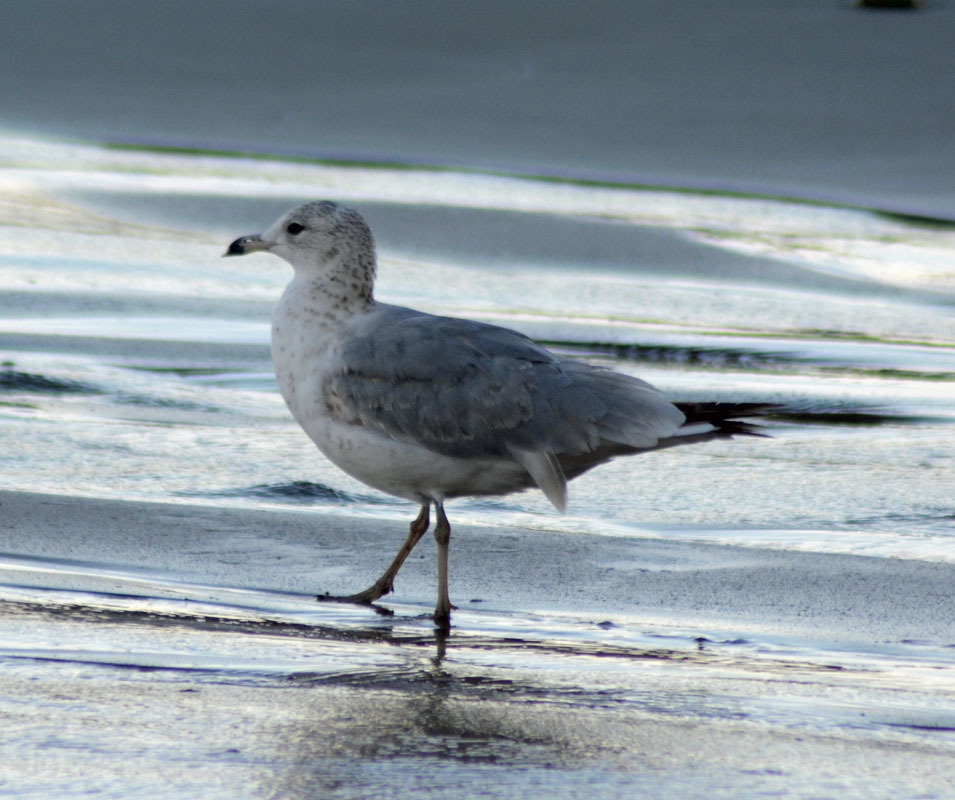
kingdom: Animalia
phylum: Chordata
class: Aves
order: Charadriiformes
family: Laridae
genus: Larus
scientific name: Larus delawarensis
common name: Ring-billed gull
